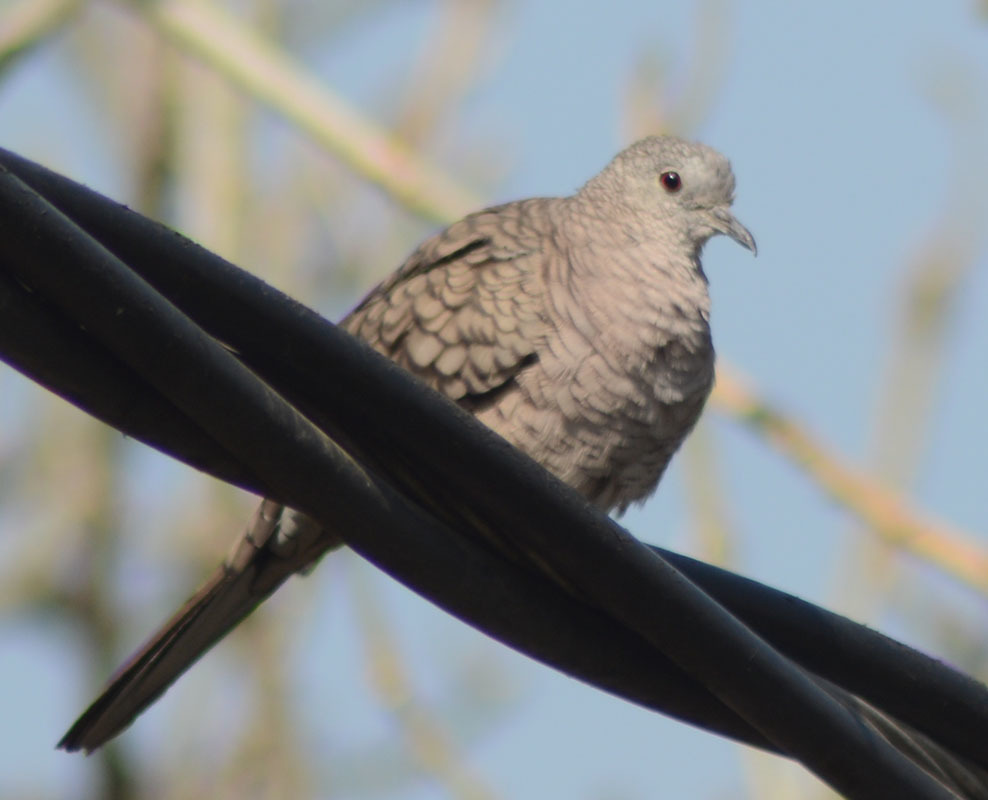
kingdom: Animalia
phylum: Chordata
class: Aves
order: Columbiformes
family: Columbidae
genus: Columbina
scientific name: Columbina inca
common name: Inca dove
